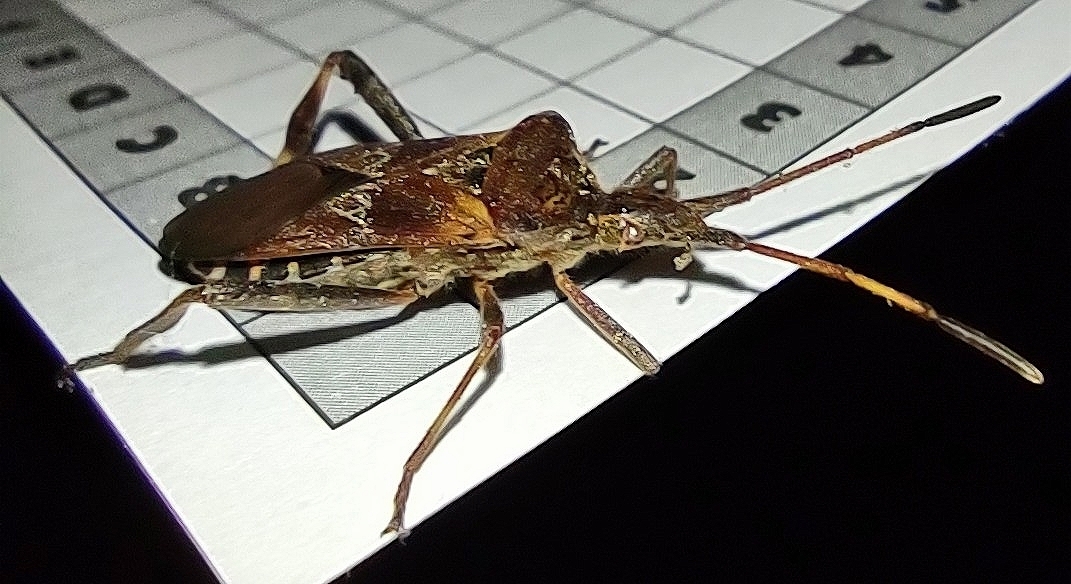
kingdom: Animalia
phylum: Arthropoda
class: Insecta
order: Hemiptera
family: Coreidae
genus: Leptoglossus
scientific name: Leptoglossus occidentalis
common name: Western conifer-seed bug
